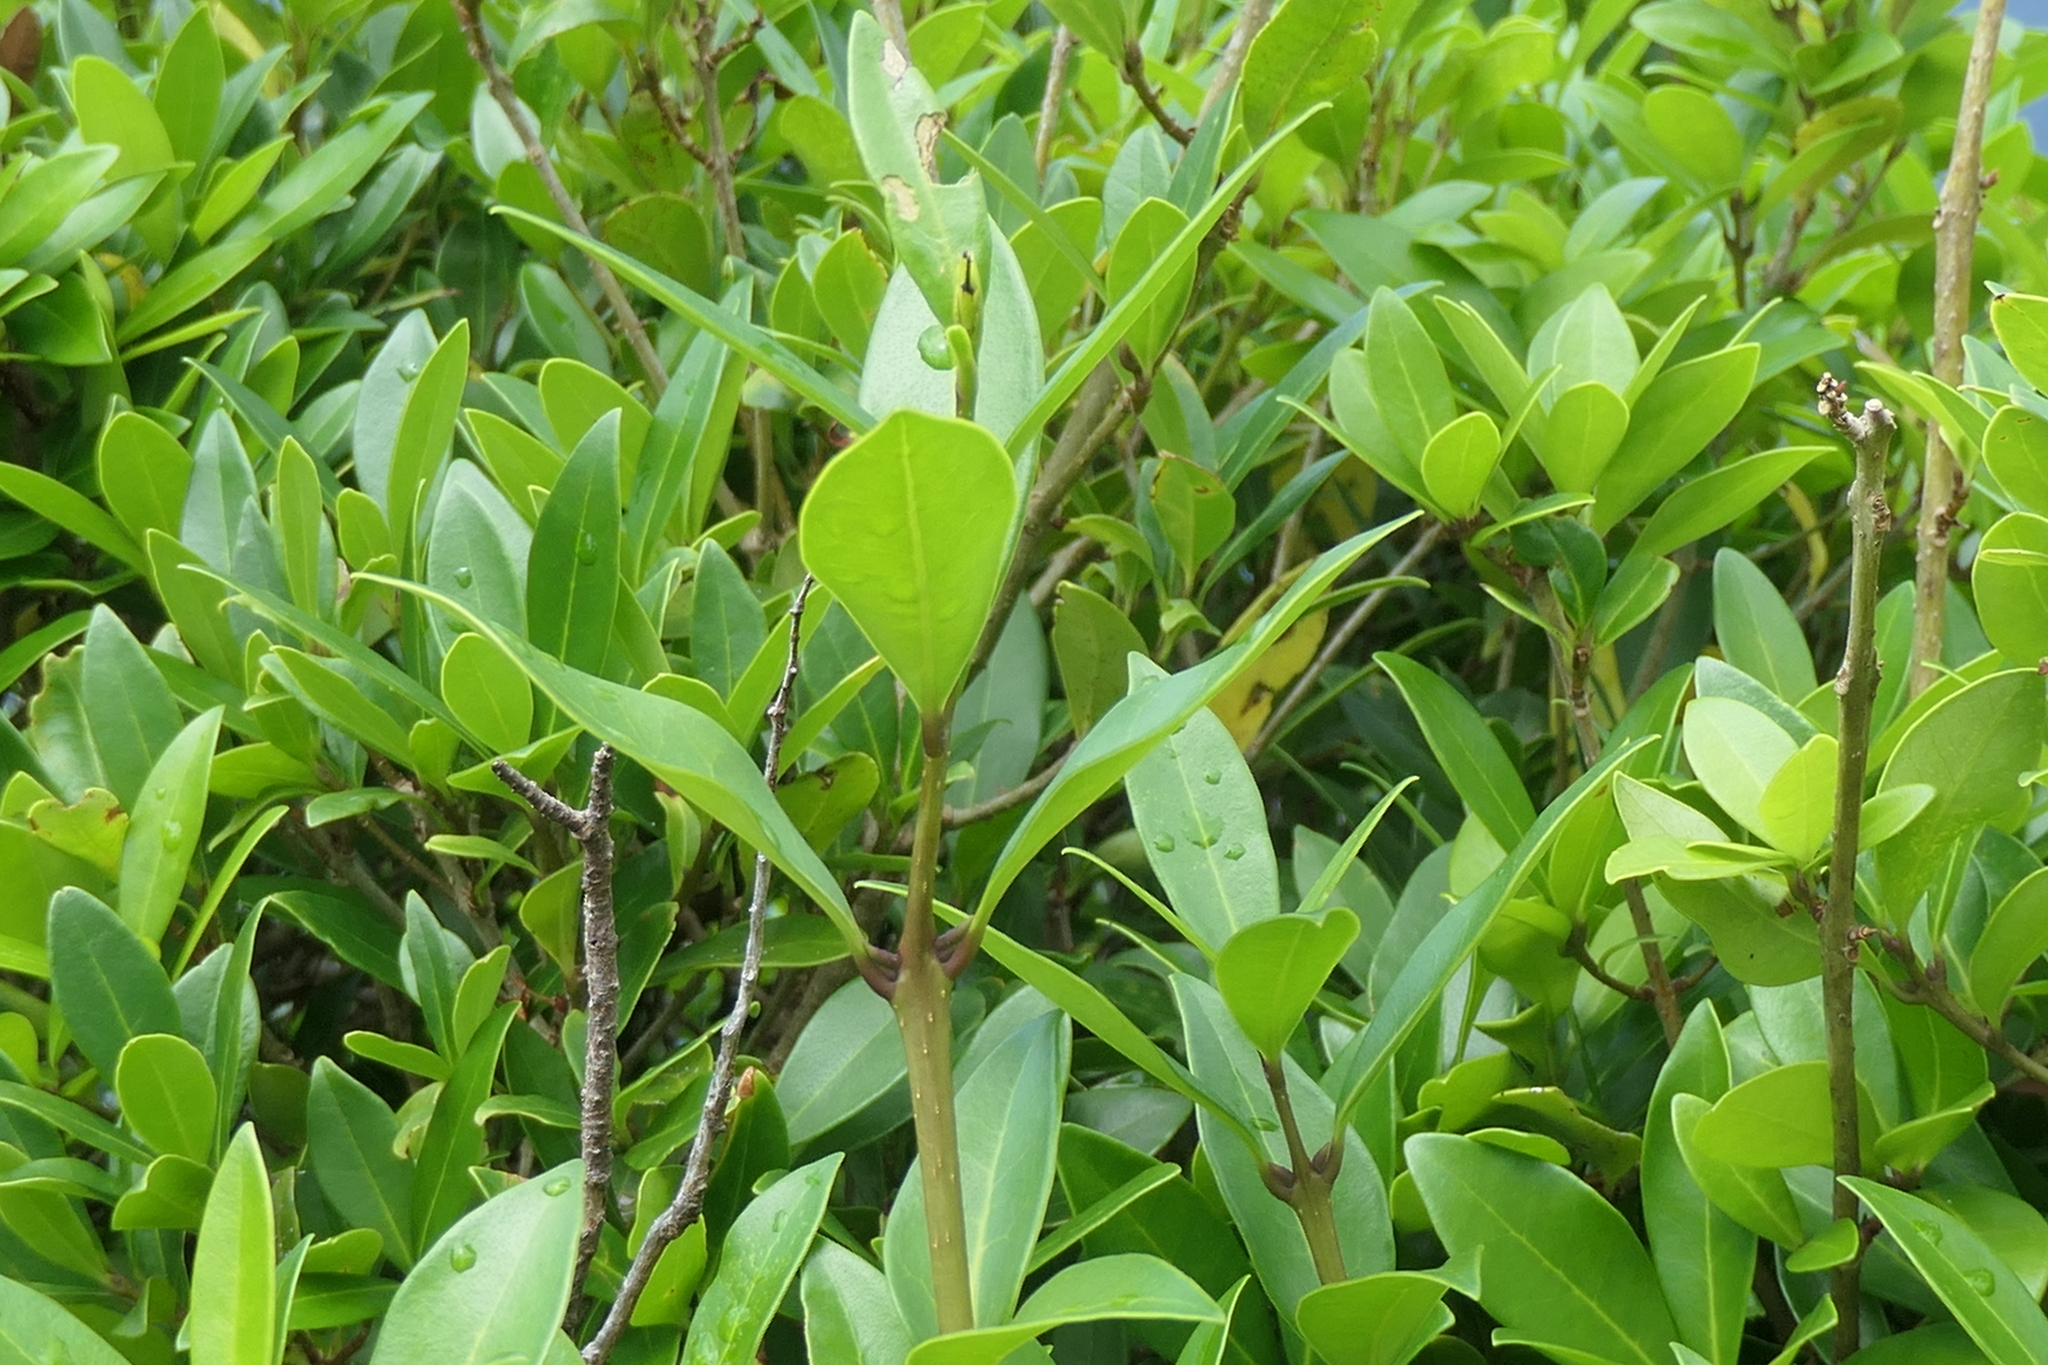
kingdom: Plantae
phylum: Tracheophyta
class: Magnoliopsida
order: Lamiales
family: Oleaceae
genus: Picconia
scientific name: Picconia azorica
